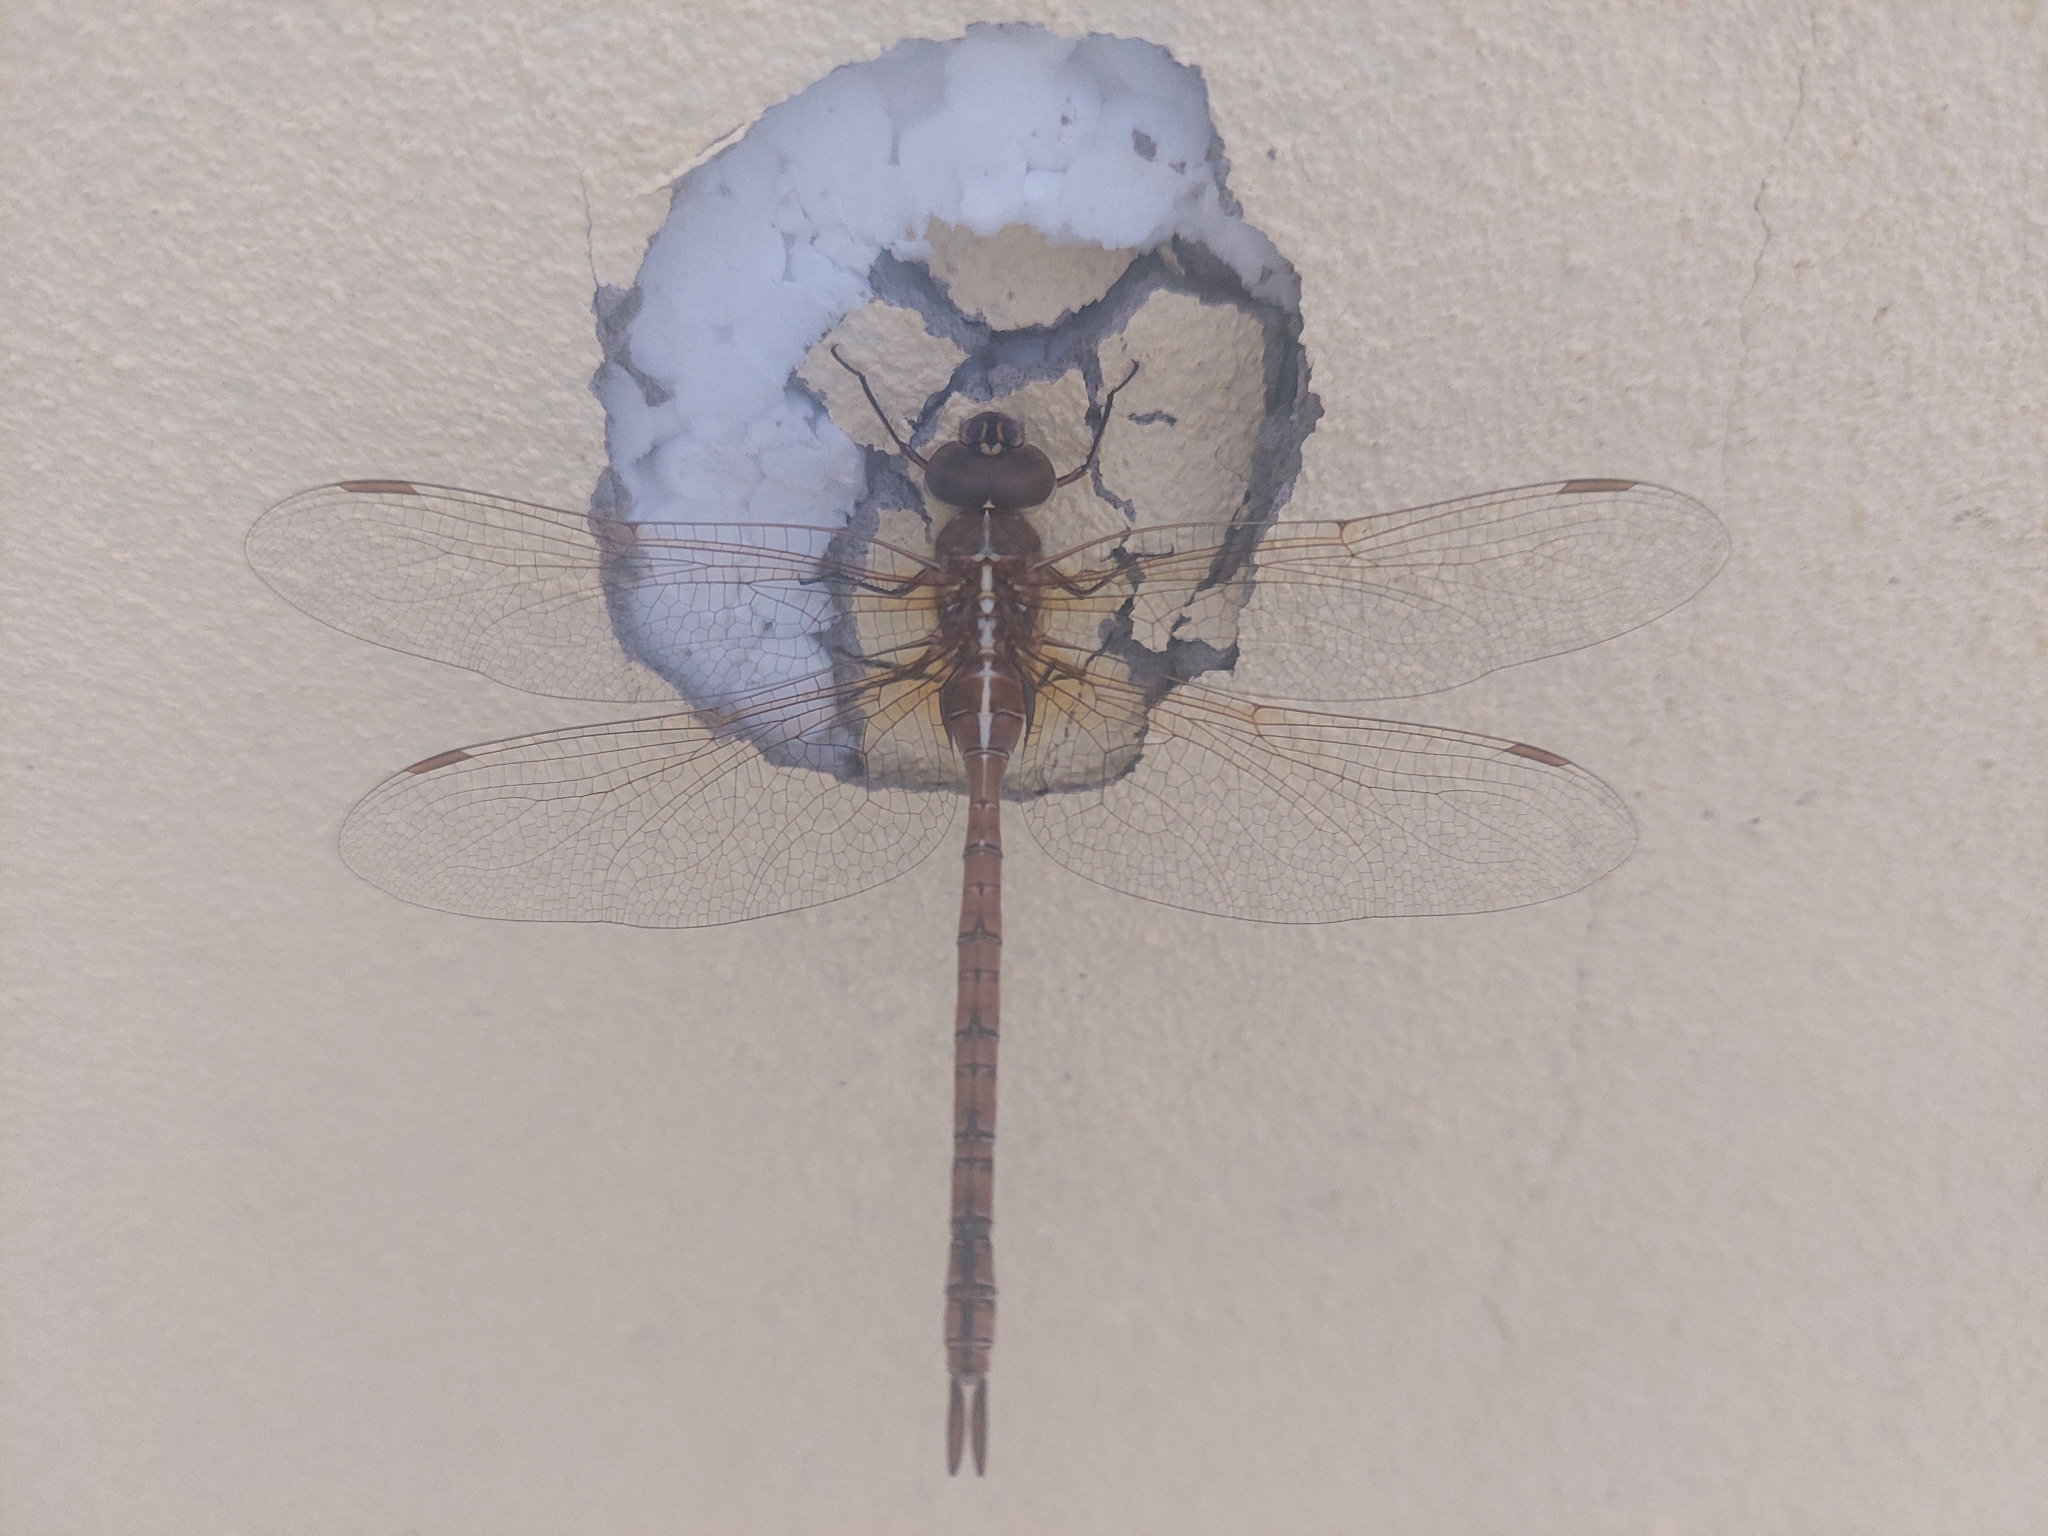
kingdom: Animalia
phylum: Arthropoda
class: Insecta
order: Odonata
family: Aeshnidae
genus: Rhionaeschna
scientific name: Rhionaeschna bonariensis
